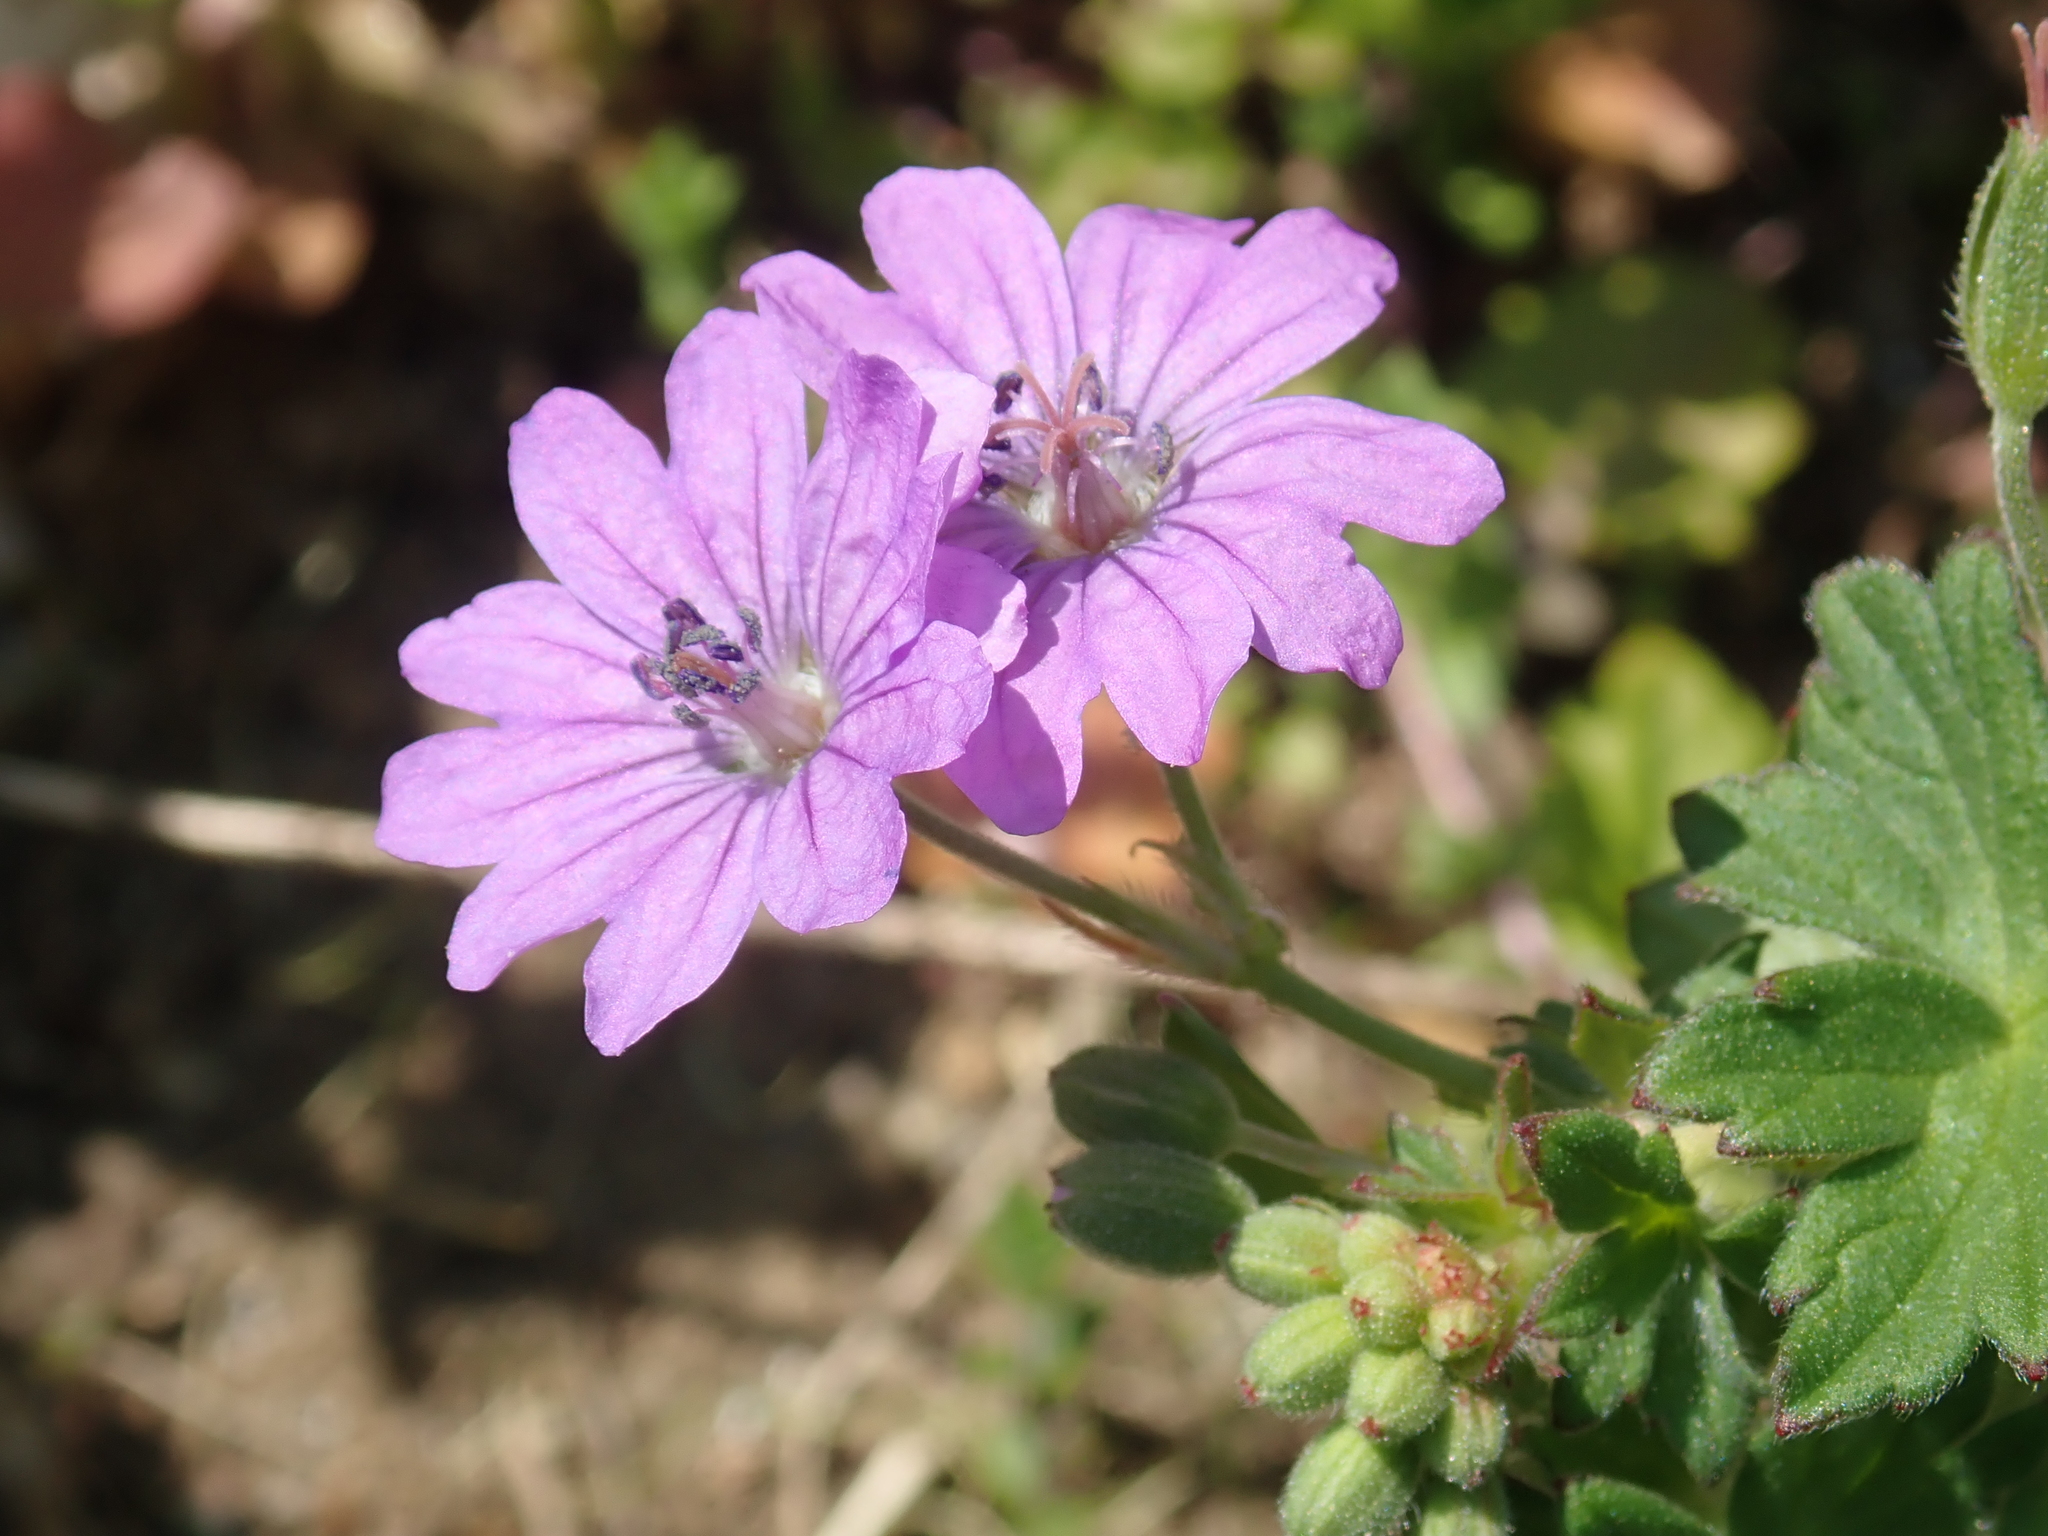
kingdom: Plantae
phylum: Tracheophyta
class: Magnoliopsida
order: Geraniales
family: Geraniaceae
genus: Geranium
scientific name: Geranium pyrenaicum
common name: Hedgerow crane's-bill
